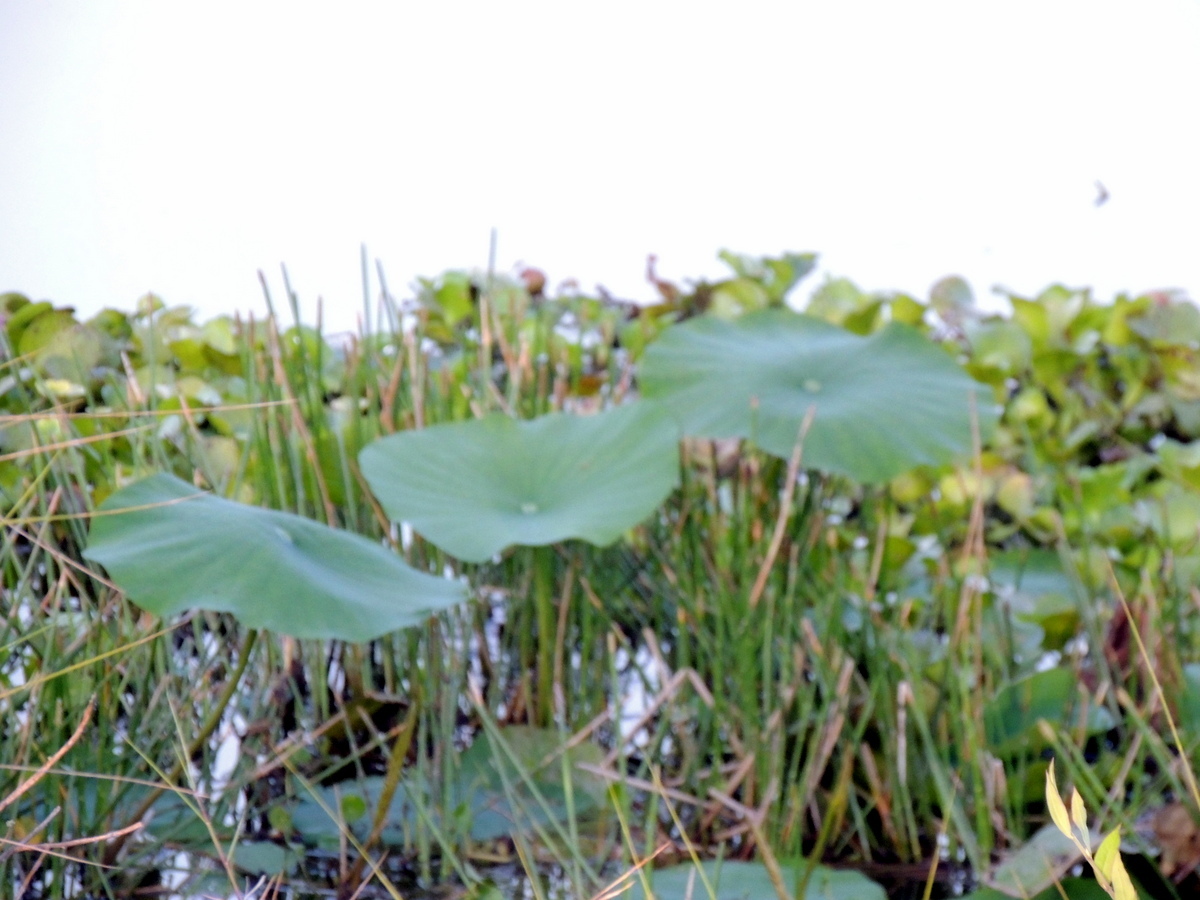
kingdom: Plantae
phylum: Tracheophyta
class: Magnoliopsida
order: Proteales
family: Nelumbonaceae
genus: Nelumbo
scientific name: Nelumbo lutea
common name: American lotus
